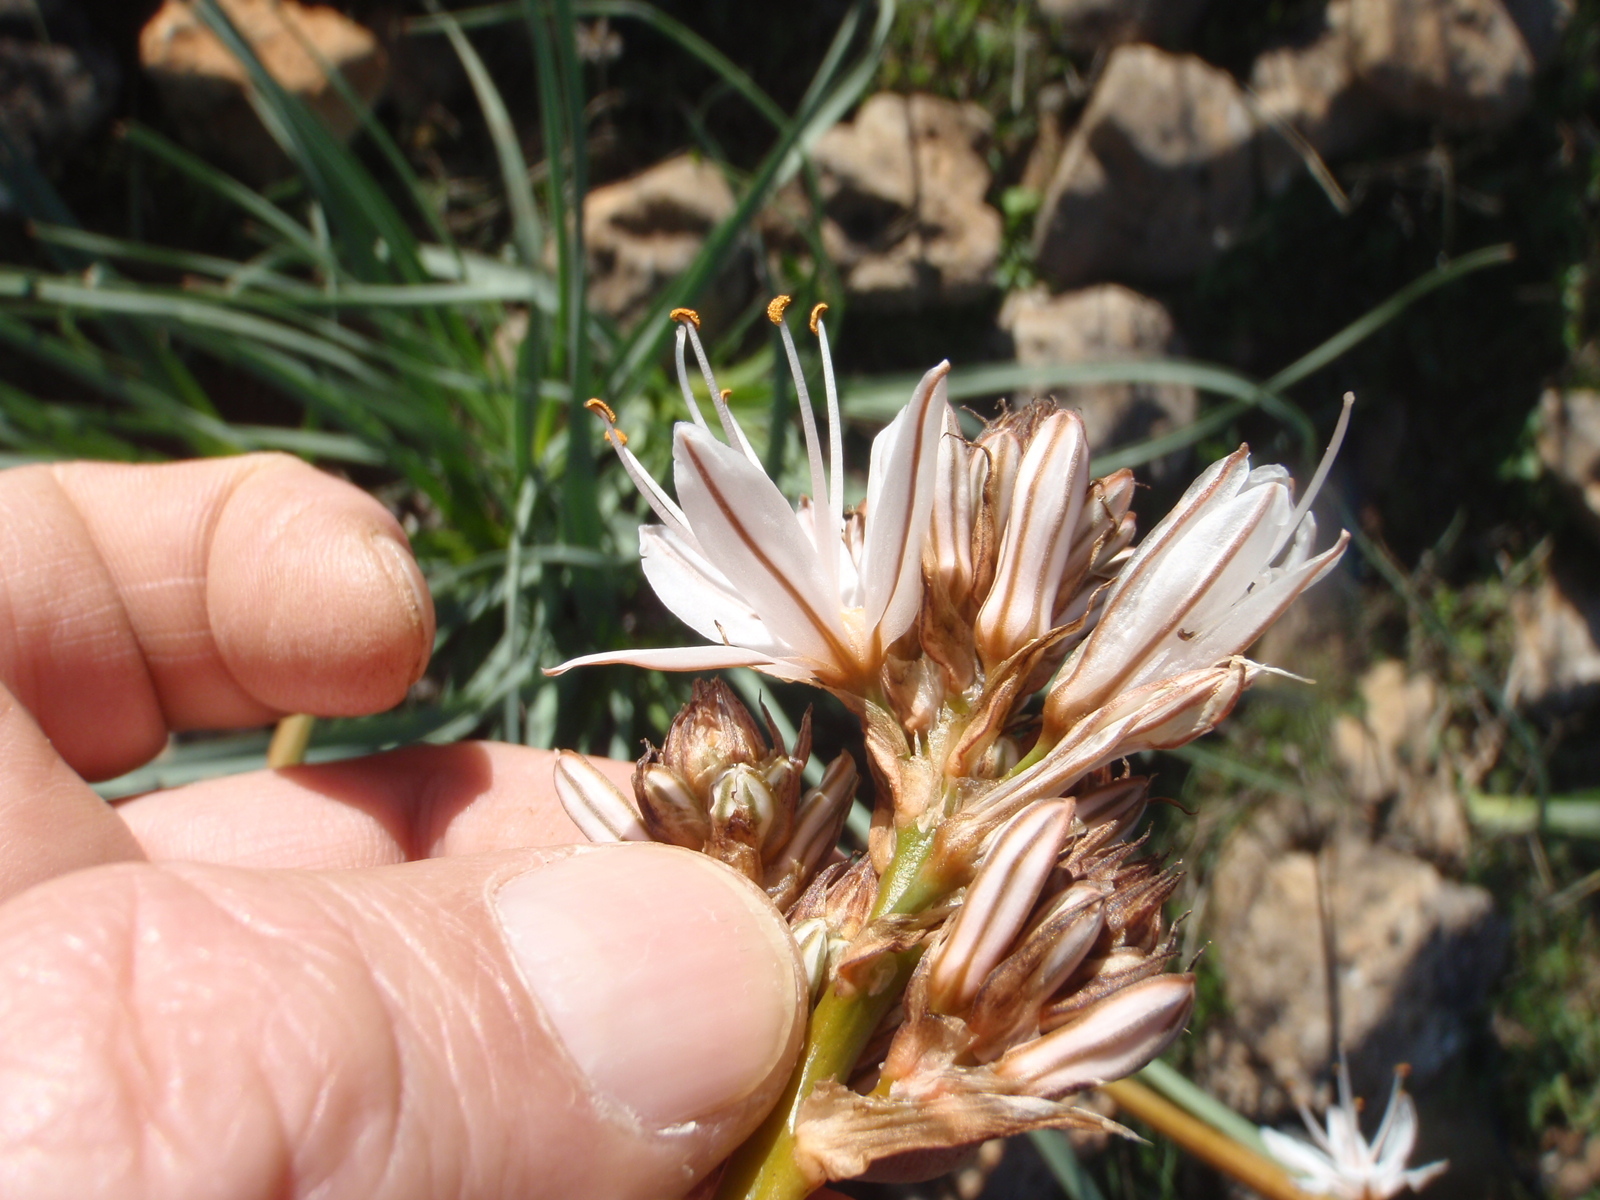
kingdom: Plantae
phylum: Tracheophyta
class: Liliopsida
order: Asparagales
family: Asphodelaceae
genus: Asphodelus
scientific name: Asphodelus ramosus
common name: Silverrod
